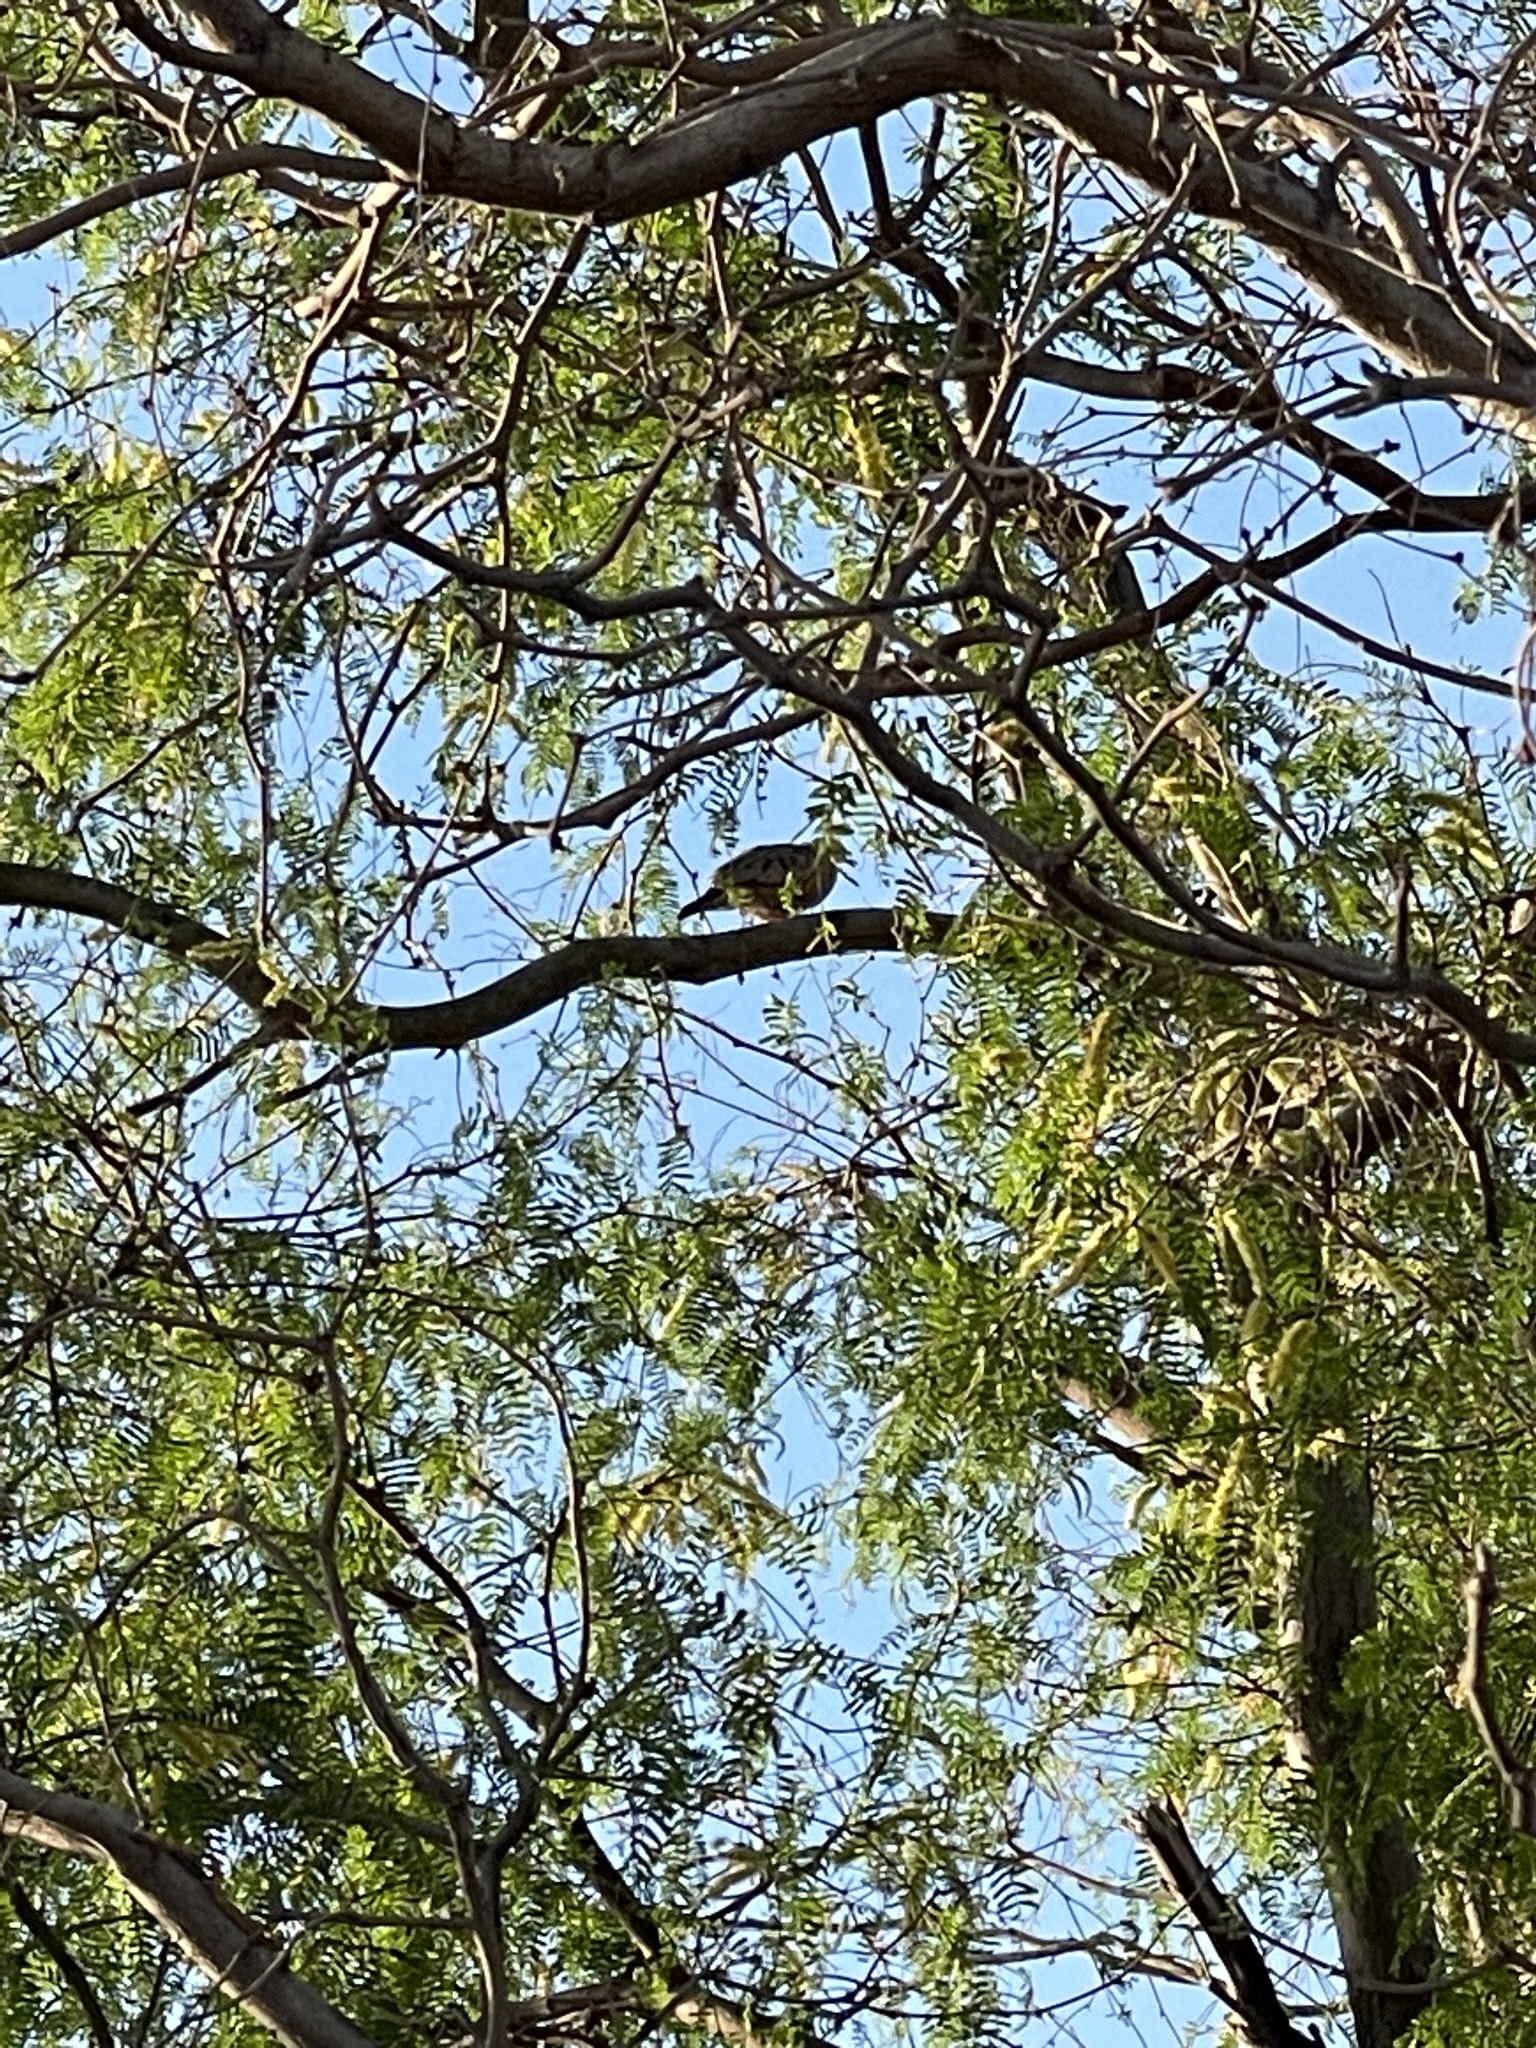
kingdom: Animalia
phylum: Chordata
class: Aves
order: Columbiformes
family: Columbidae
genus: Columbina
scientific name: Columbina passerina
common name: Common ground-dove
